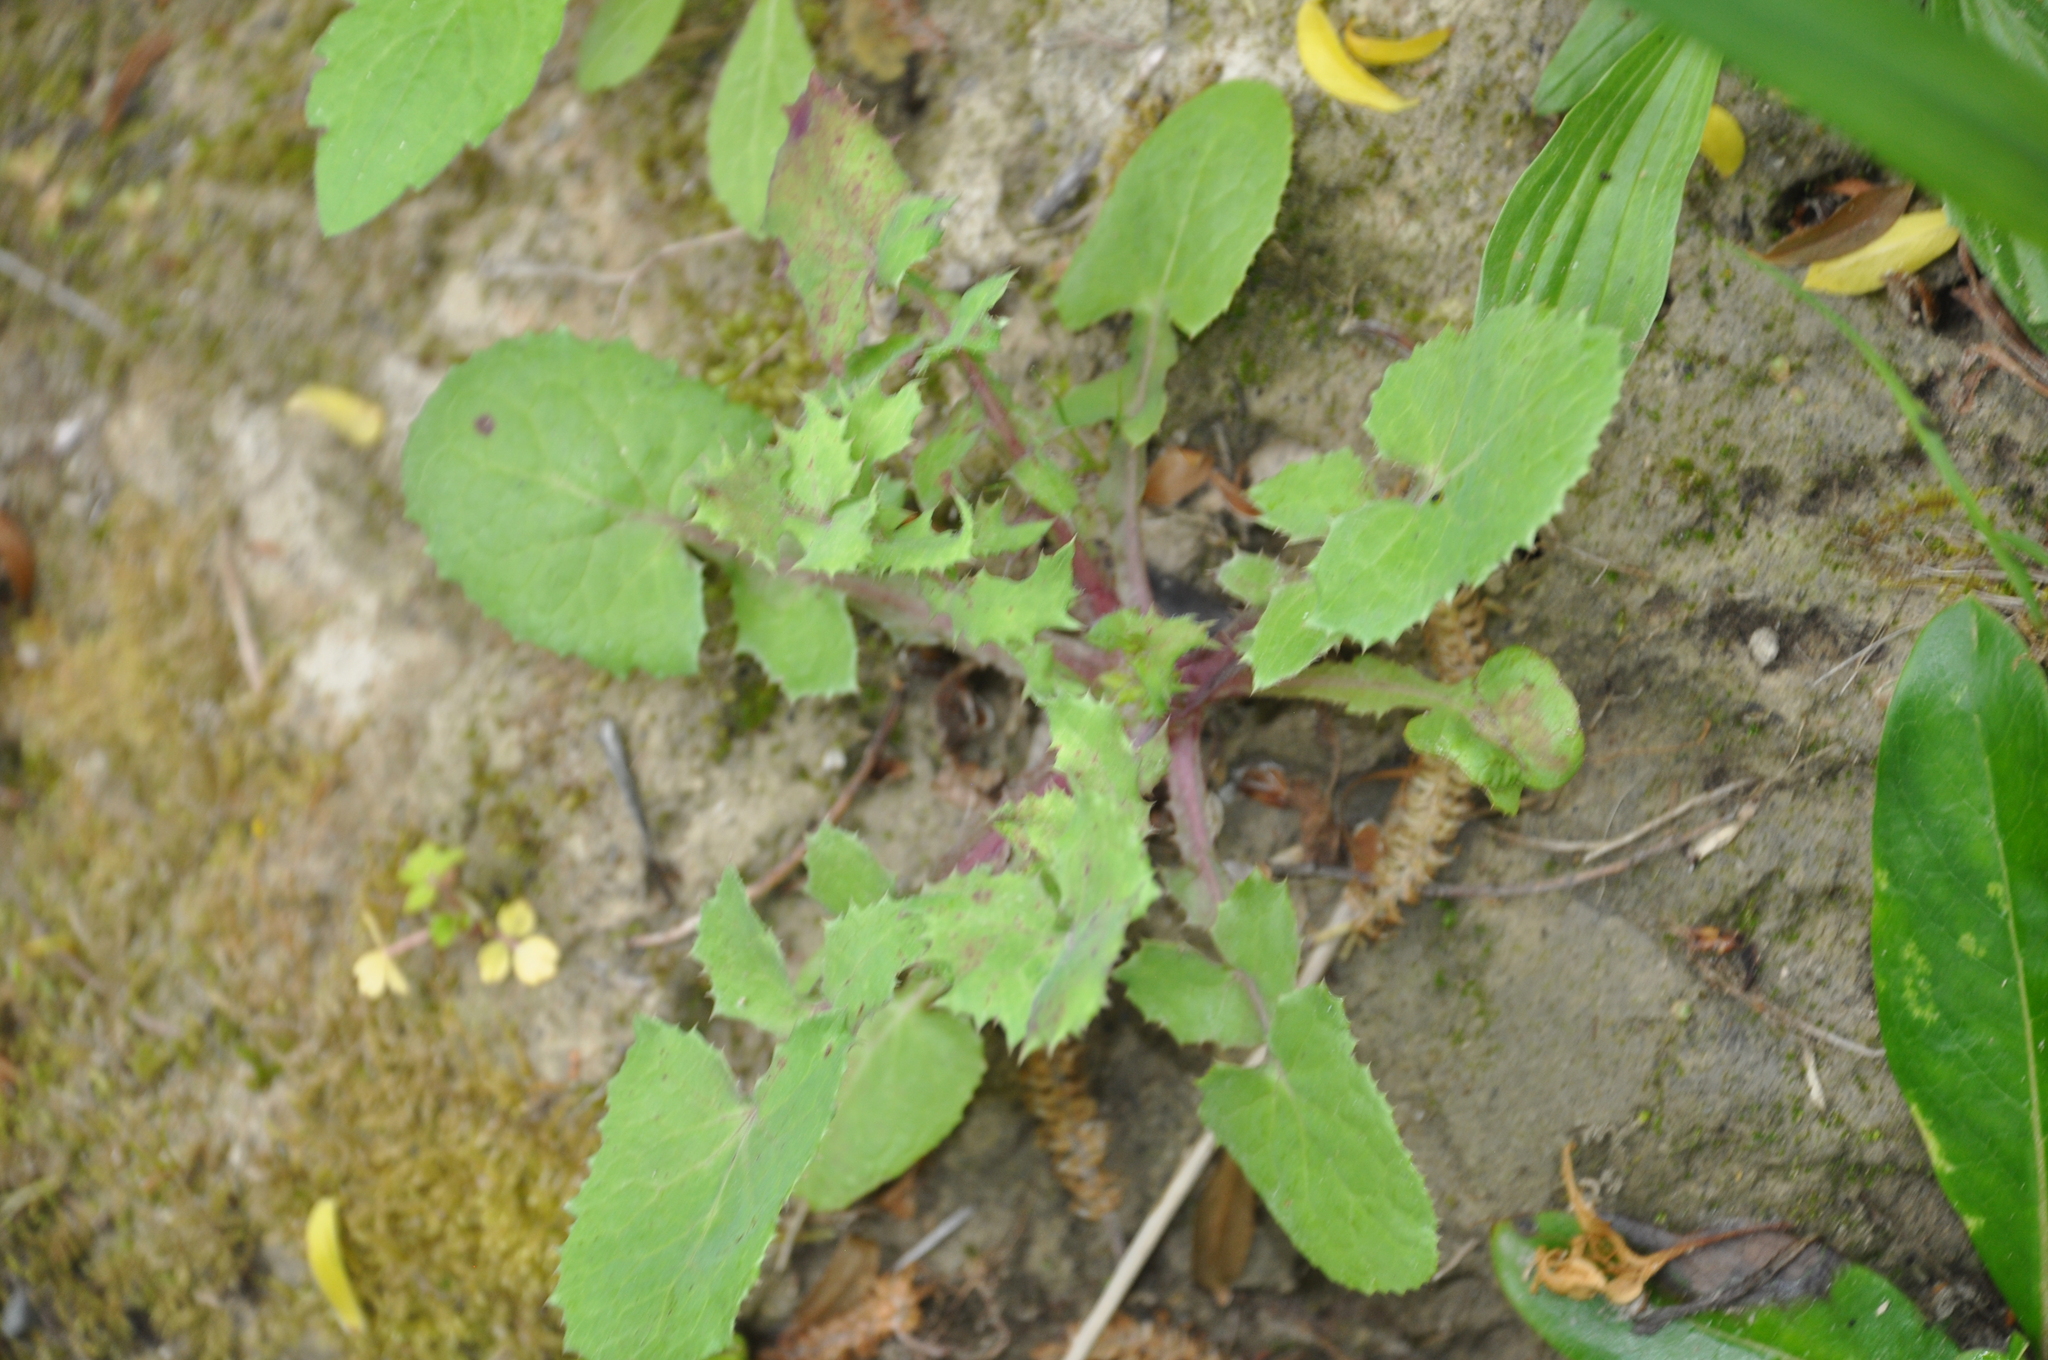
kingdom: Plantae
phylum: Tracheophyta
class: Magnoliopsida
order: Asterales
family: Asteraceae
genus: Sonchus
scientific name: Sonchus oleraceus
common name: Common sowthistle
